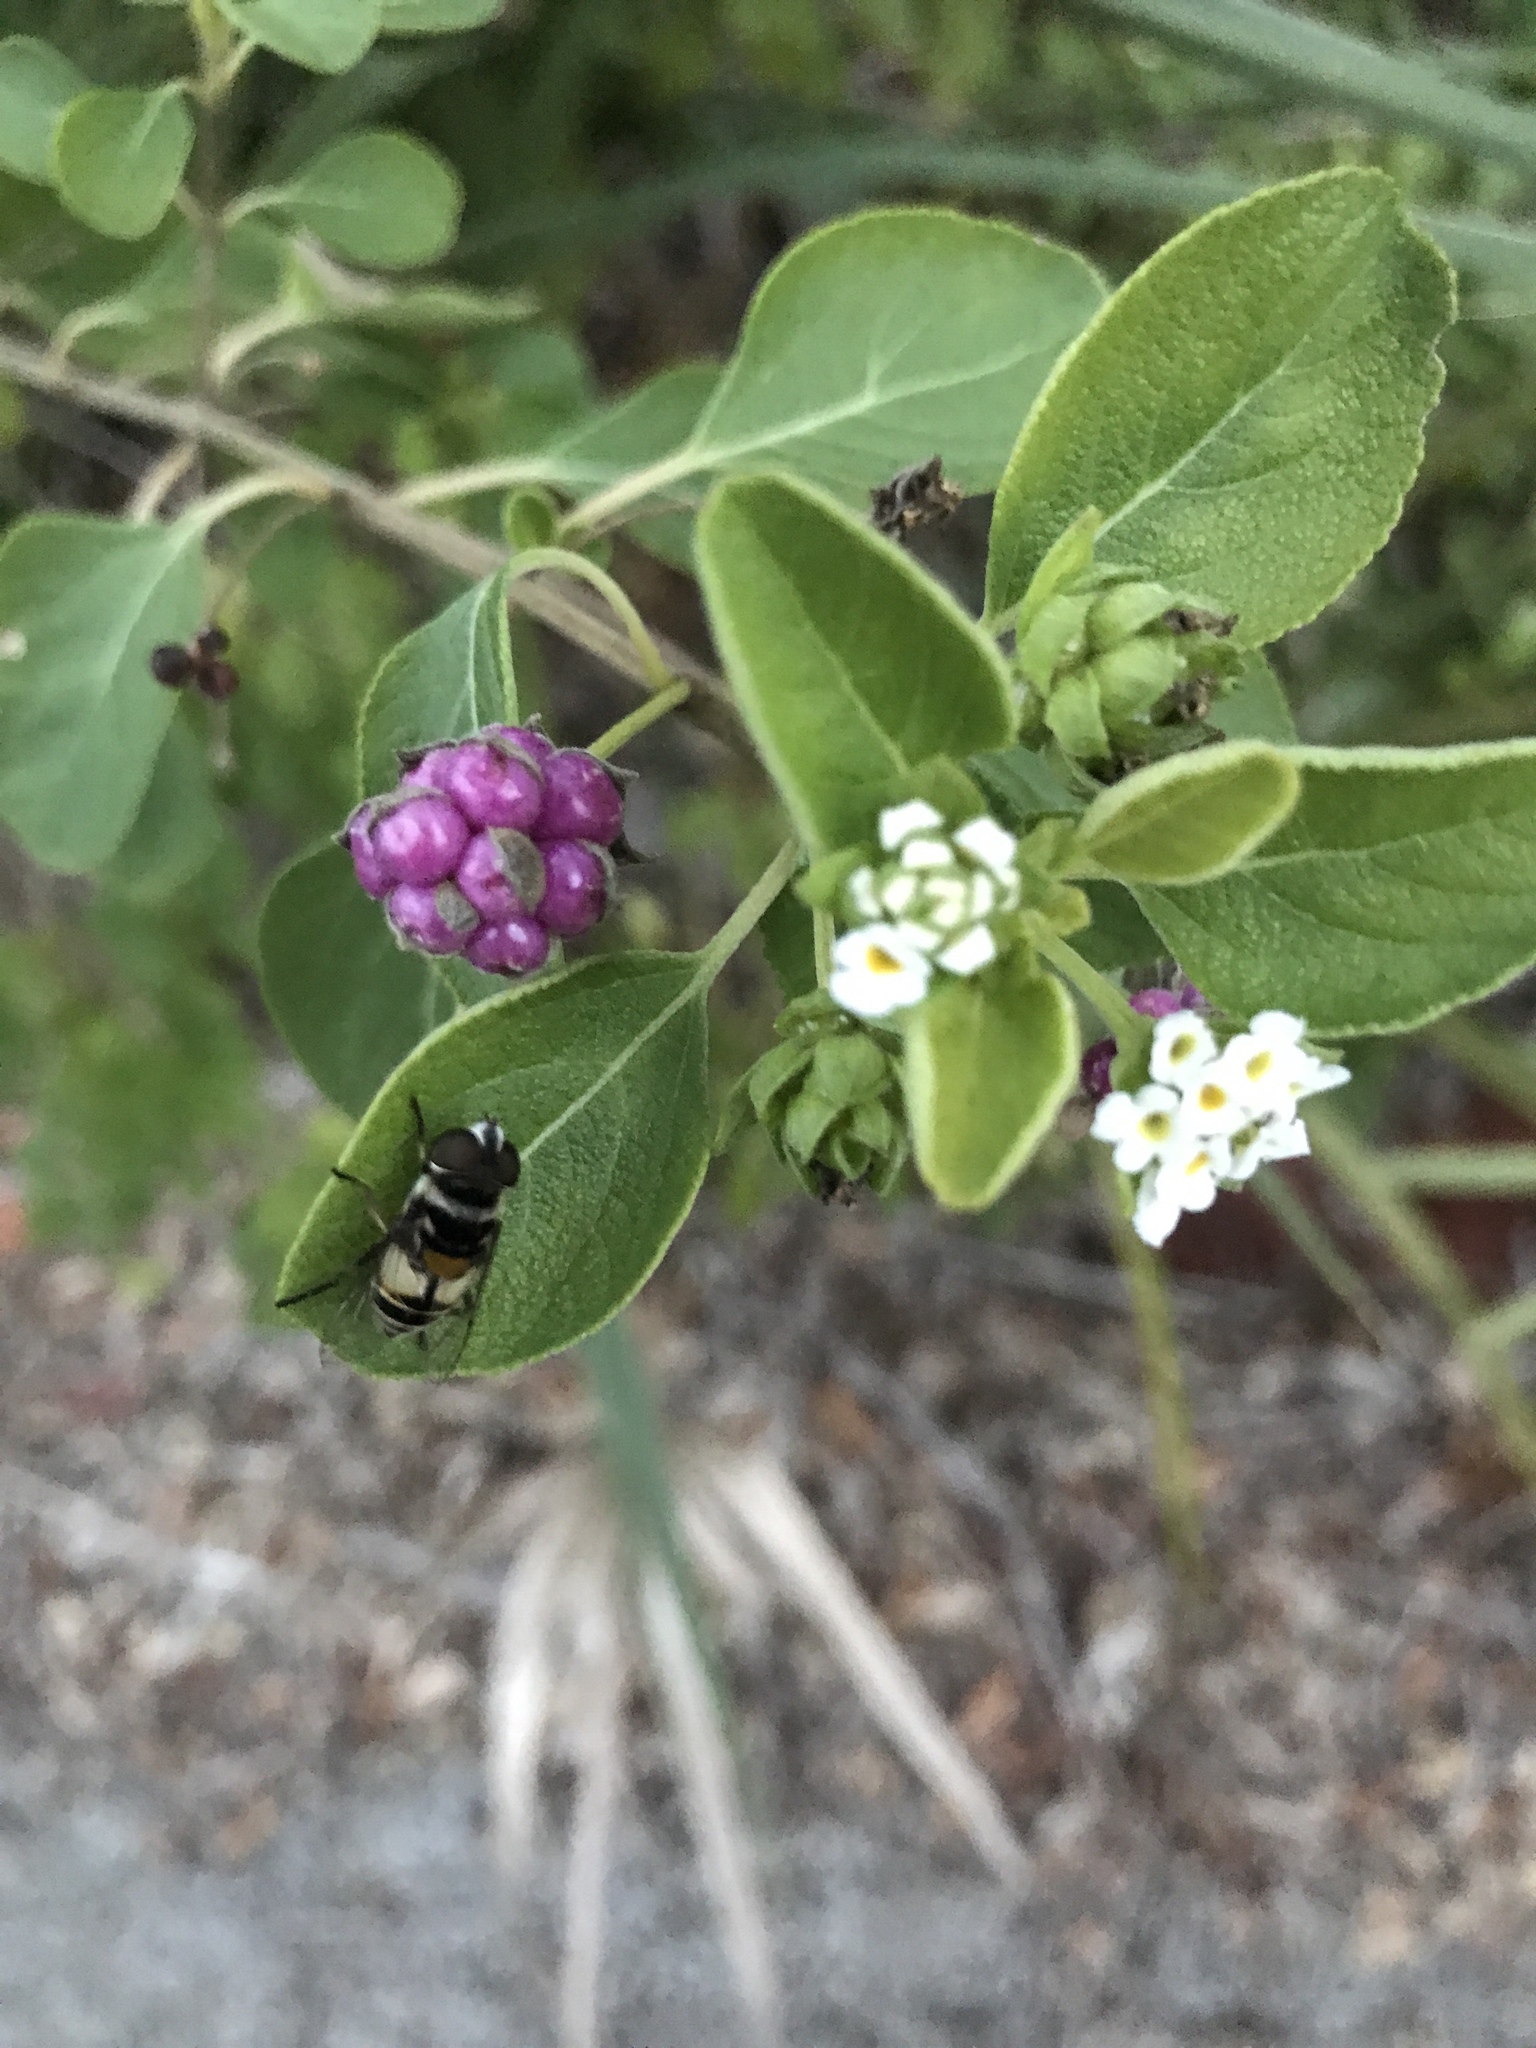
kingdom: Plantae
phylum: Tracheophyta
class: Magnoliopsida
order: Lamiales
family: Verbenaceae
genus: Lantana
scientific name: Lantana involucrata
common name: Black sage
